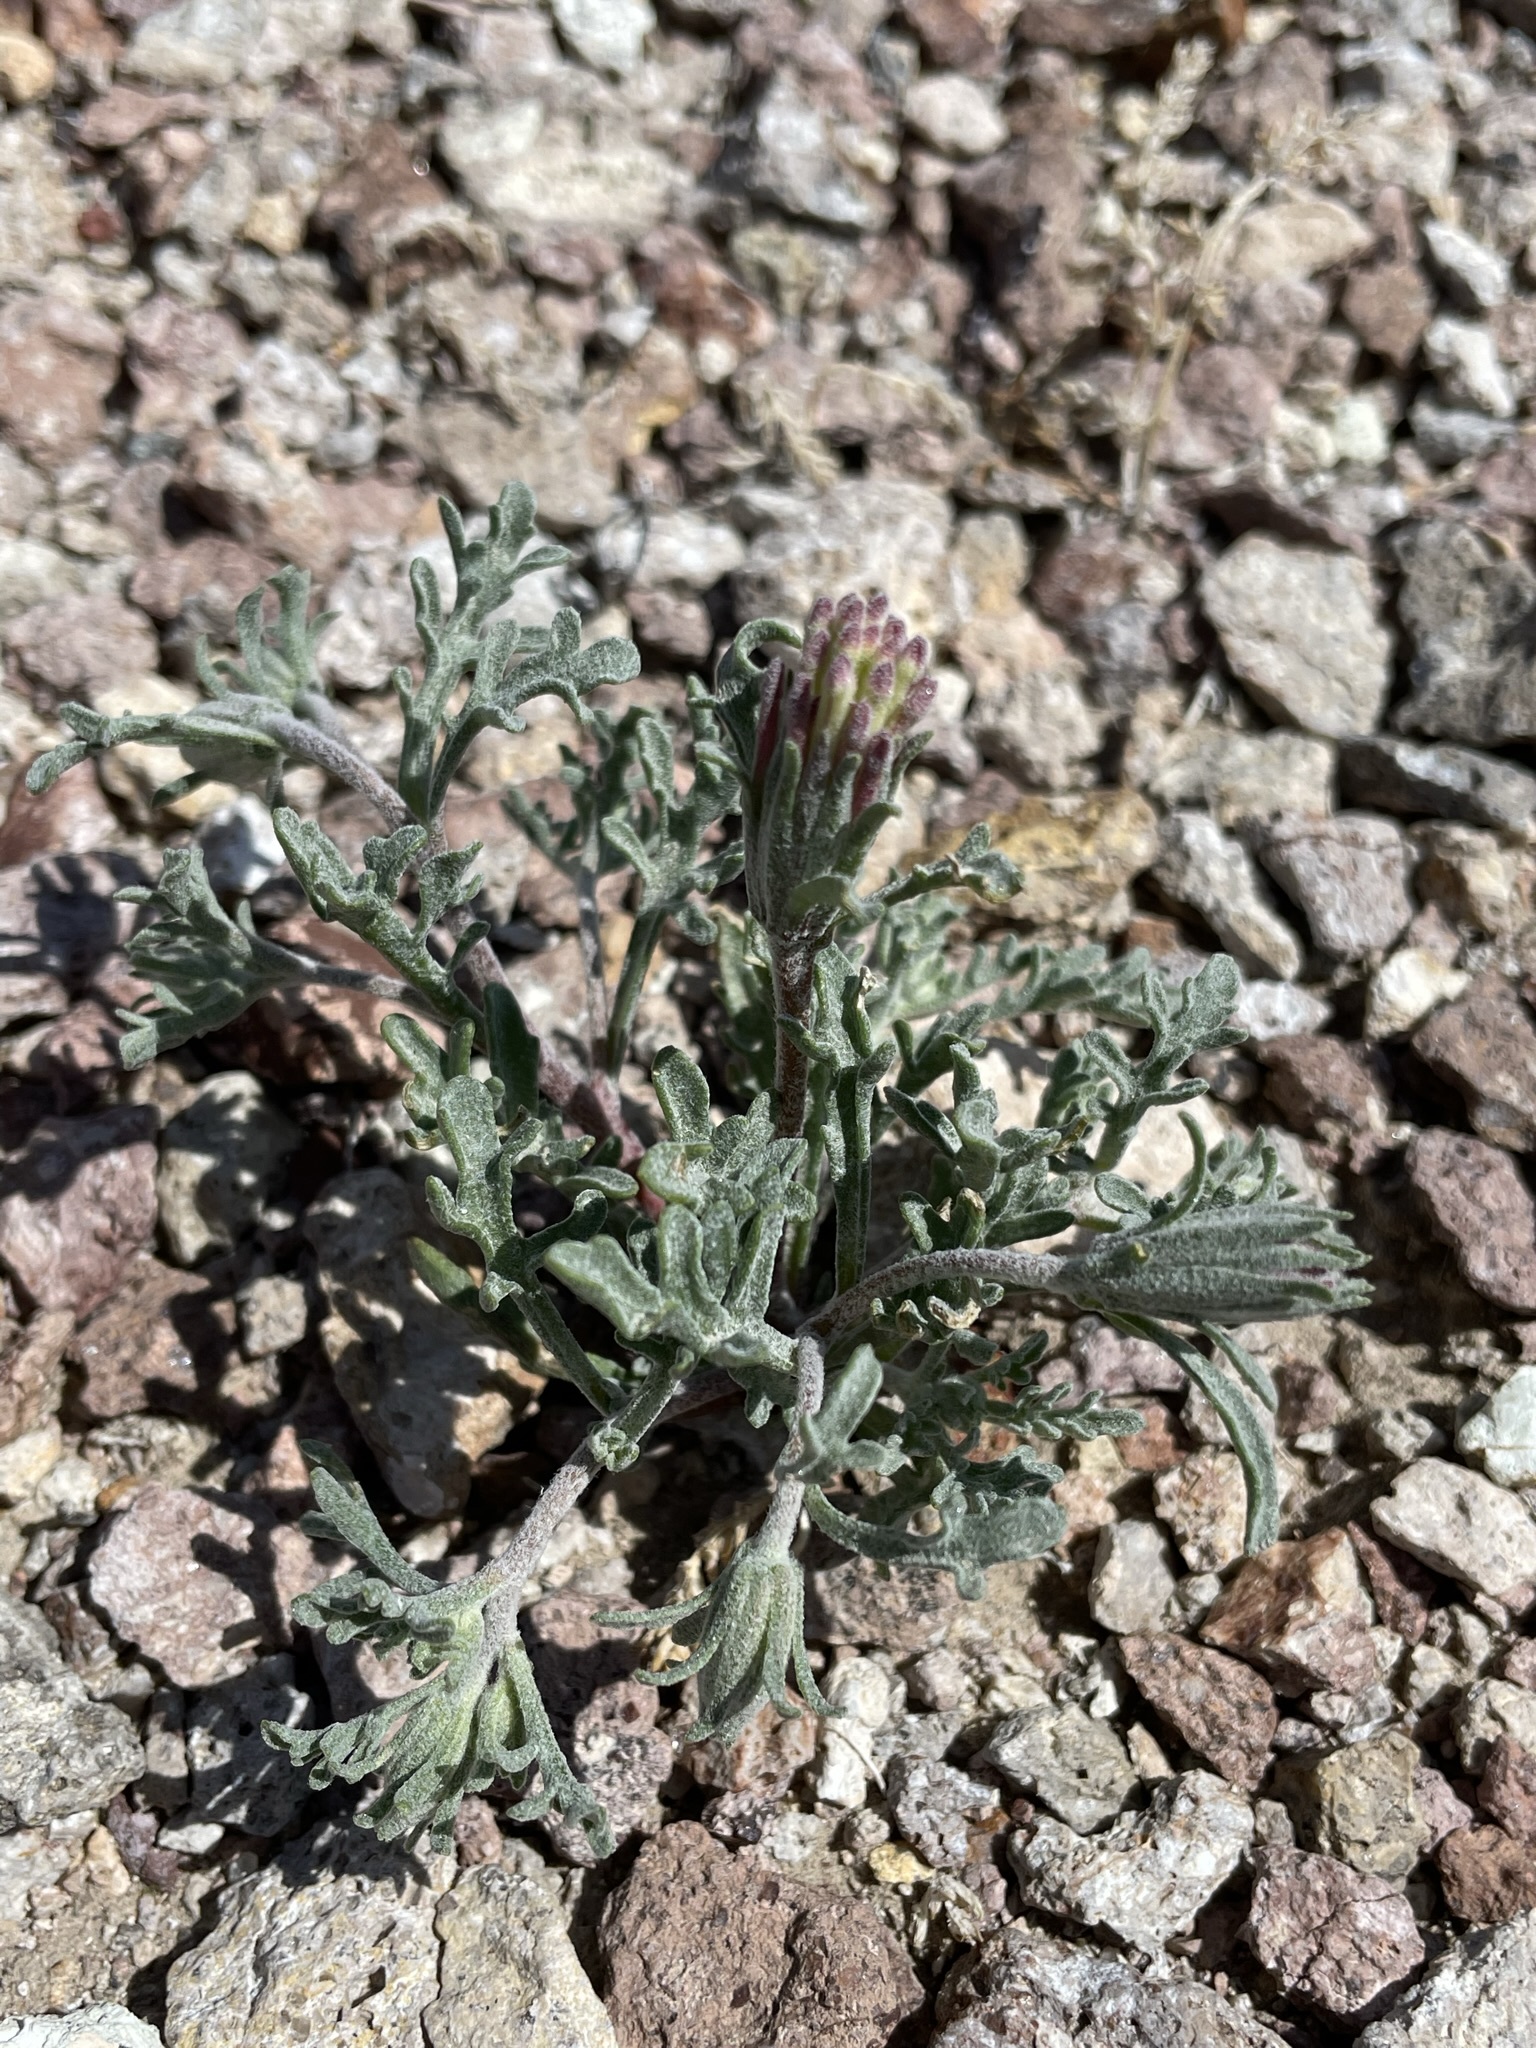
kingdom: Plantae
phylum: Tracheophyta
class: Magnoliopsida
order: Asterales
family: Asteraceae
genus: Chaenactis
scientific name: Chaenactis macrantha
